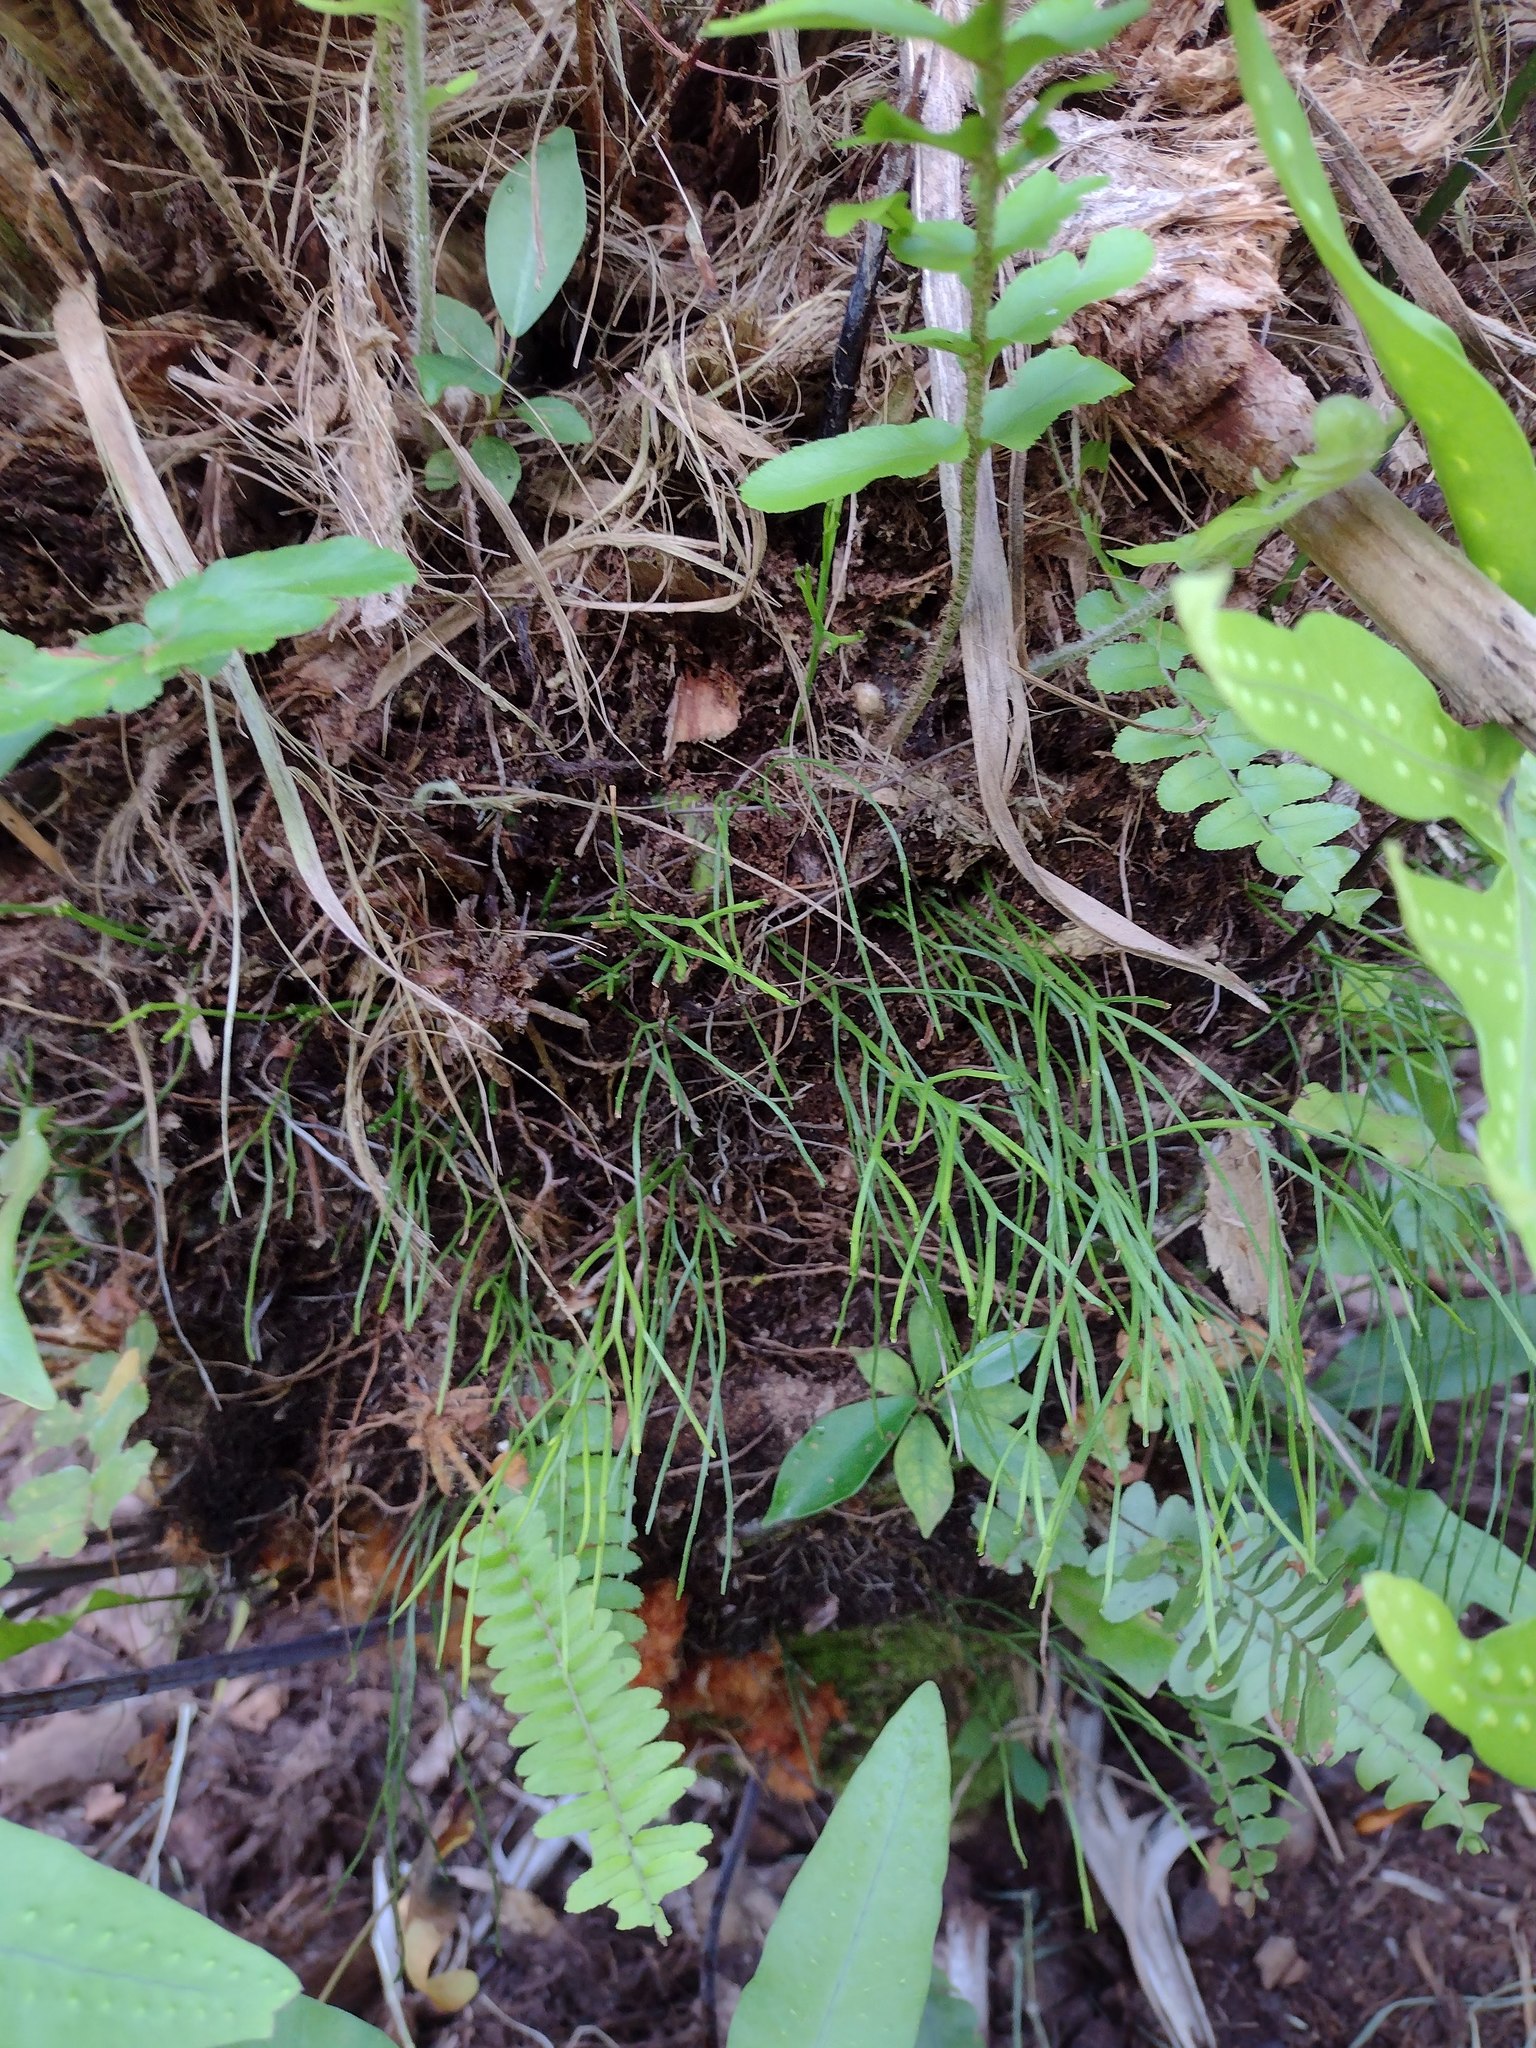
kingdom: Plantae
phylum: Tracheophyta
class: Polypodiopsida
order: Psilotales
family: Psilotaceae
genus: Psilotum
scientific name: Psilotum nudum
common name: Skeleton fork fern
